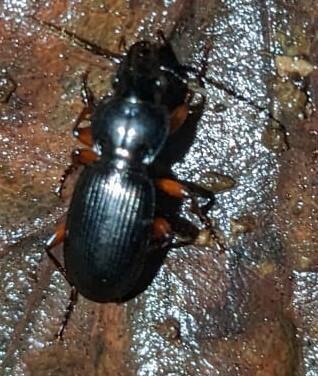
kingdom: Animalia
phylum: Arthropoda
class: Insecta
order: Coleoptera
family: Carabidae
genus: Pterostichus
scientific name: Pterostichus madidus
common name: Black clock
